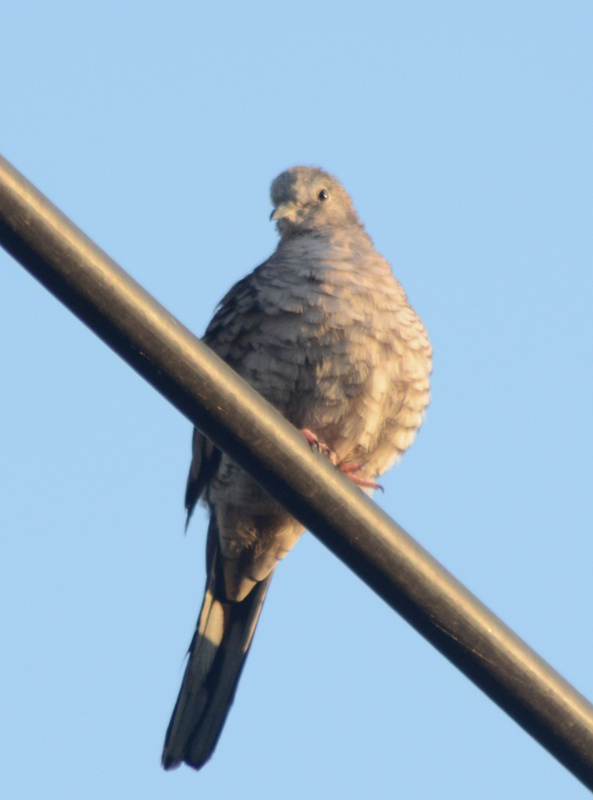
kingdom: Animalia
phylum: Chordata
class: Aves
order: Columbiformes
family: Columbidae
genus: Columbina
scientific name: Columbina inca
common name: Inca dove
